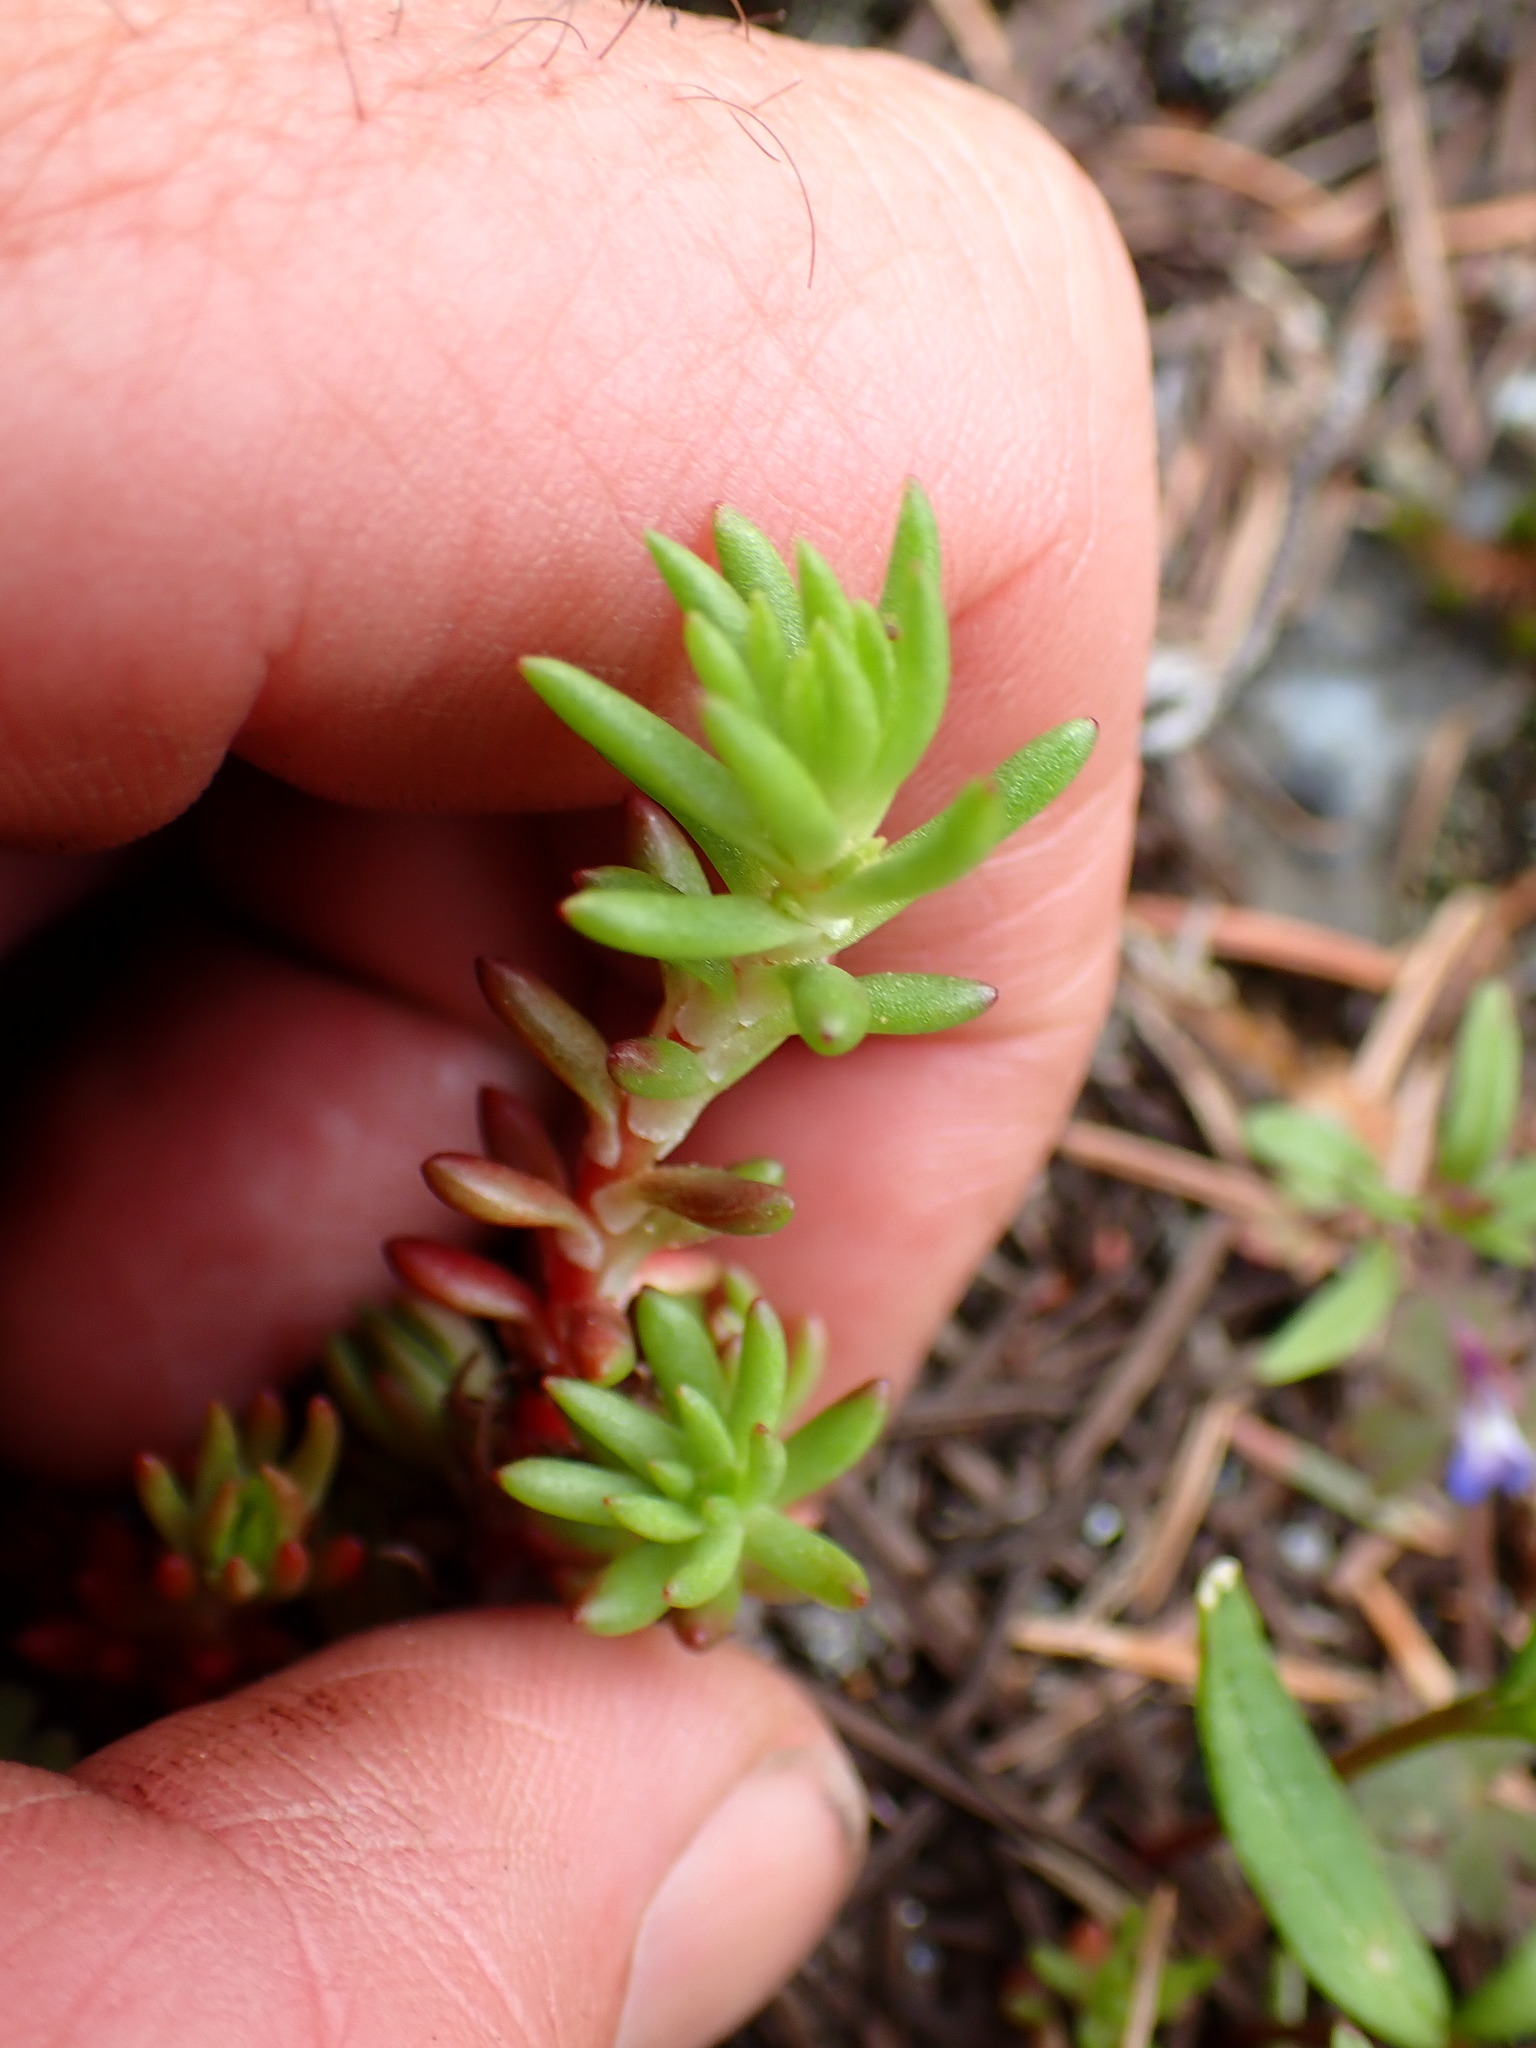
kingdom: Plantae
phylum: Tracheophyta
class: Magnoliopsida
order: Saxifragales
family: Crassulaceae
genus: Sedum
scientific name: Sedum stenopetalum
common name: Narrow-petaled stonecrop
